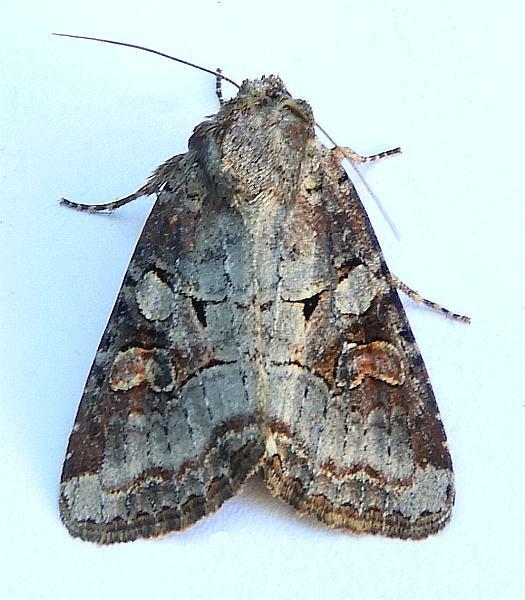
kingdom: Animalia
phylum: Arthropoda
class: Insecta
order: Lepidoptera
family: Noctuidae
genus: Trichordestra
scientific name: Trichordestra legitima
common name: Striped garden caterpillar
